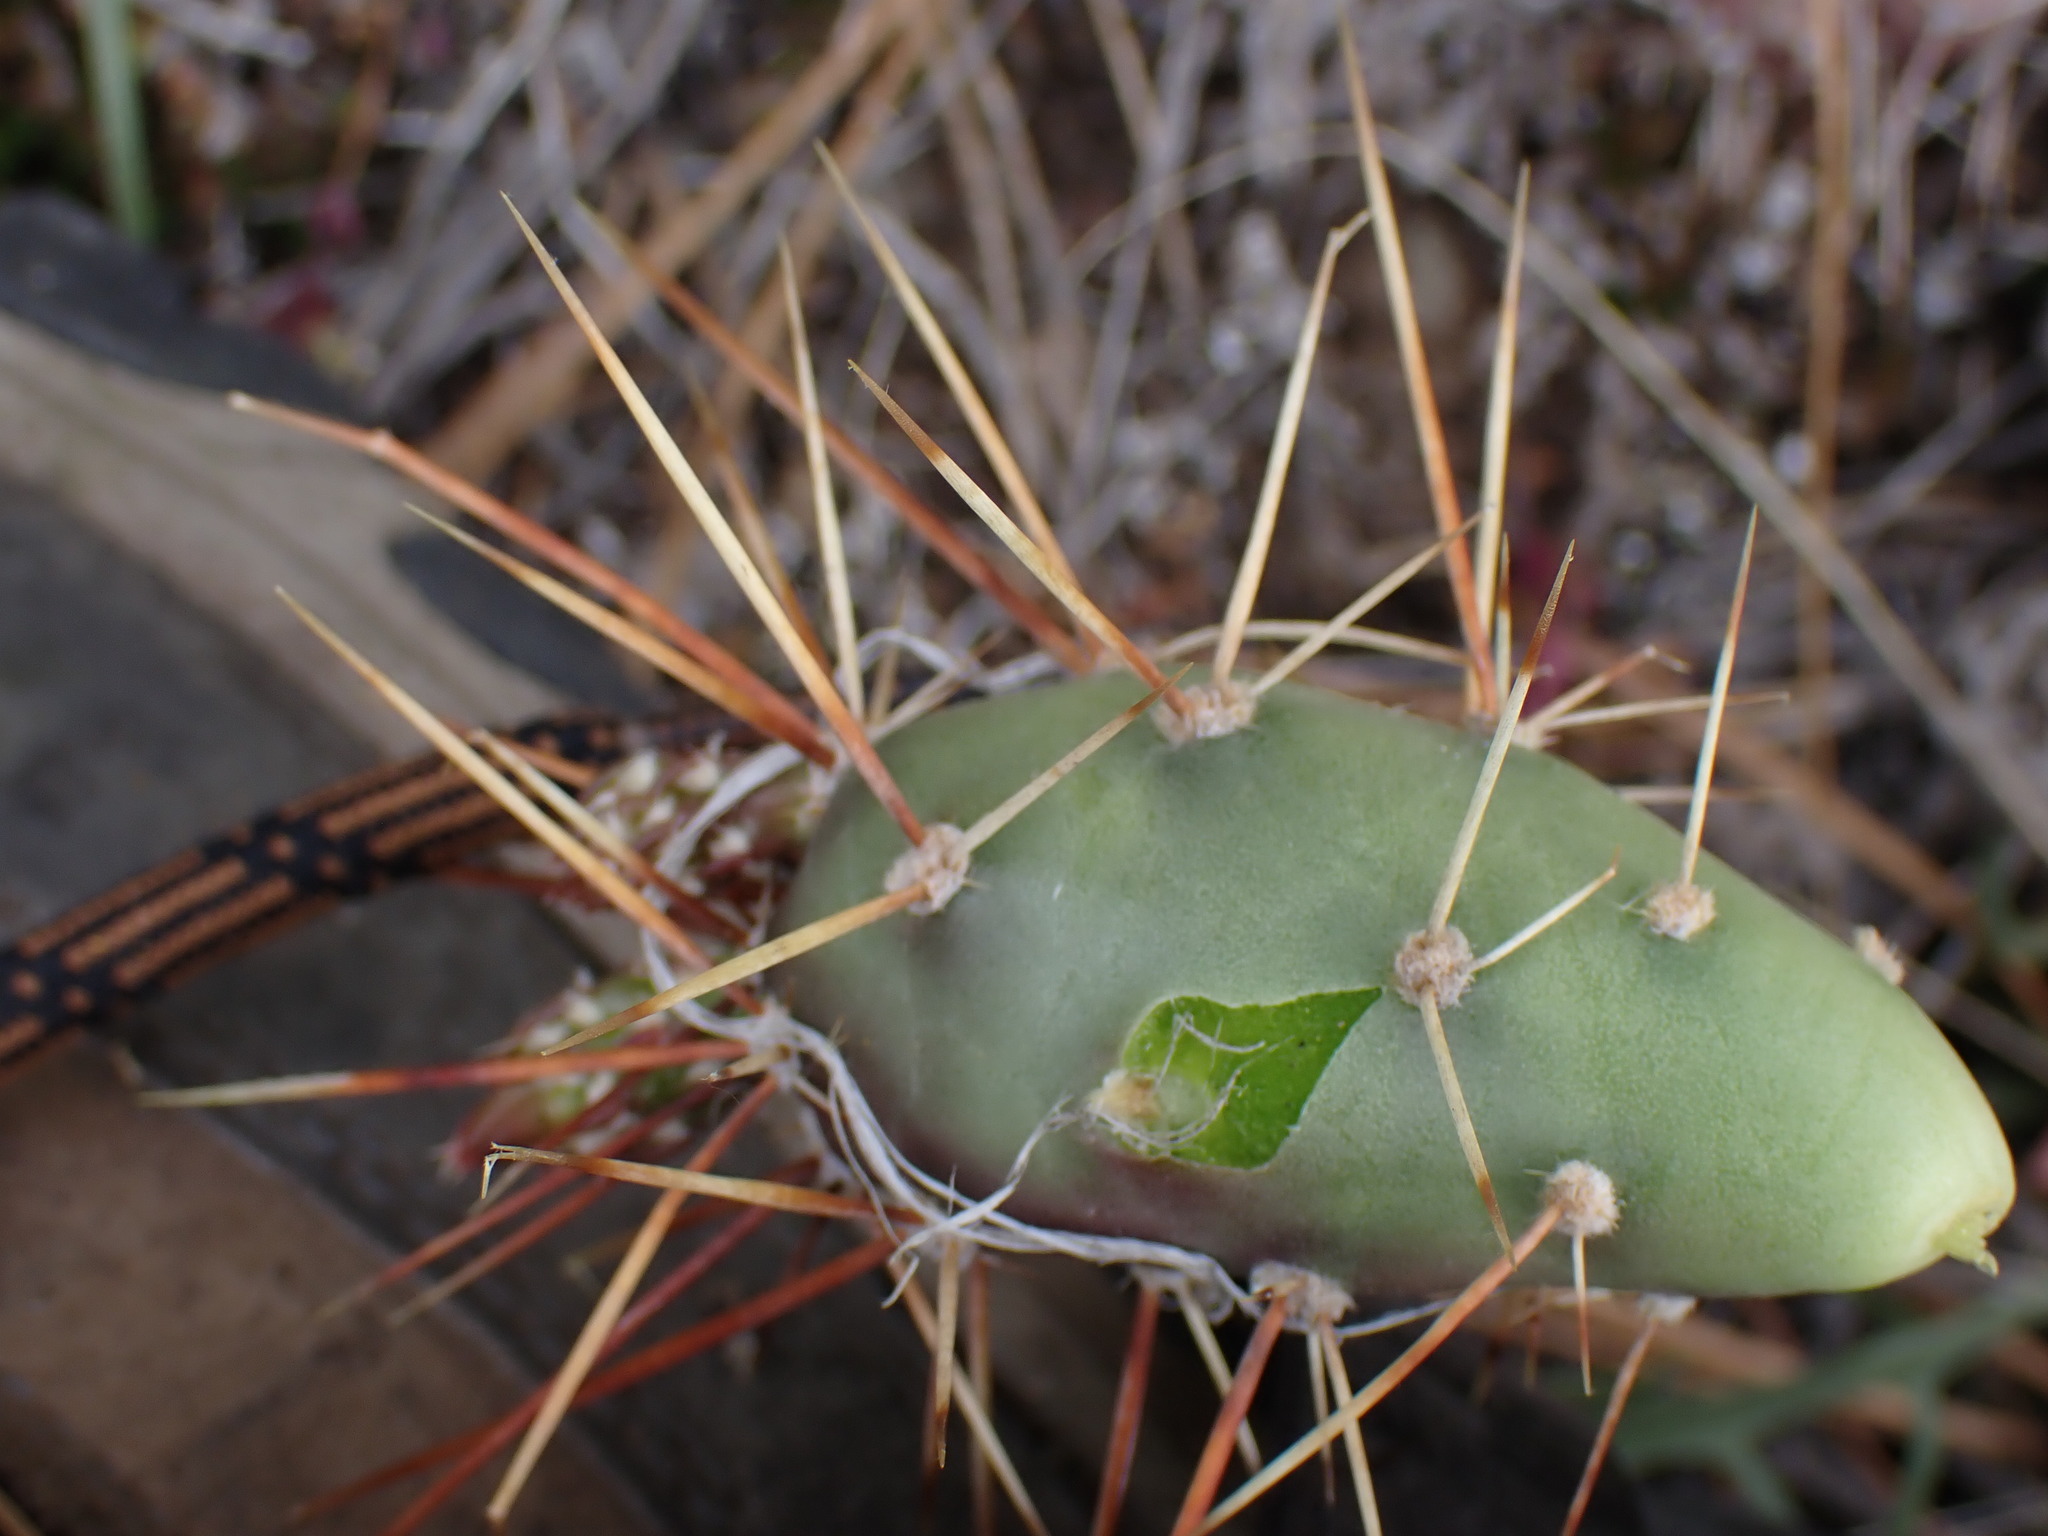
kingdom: Plantae
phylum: Tracheophyta
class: Magnoliopsida
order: Caryophyllales
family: Cactaceae
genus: Opuntia
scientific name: Opuntia fragilis
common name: Brittle cactus
